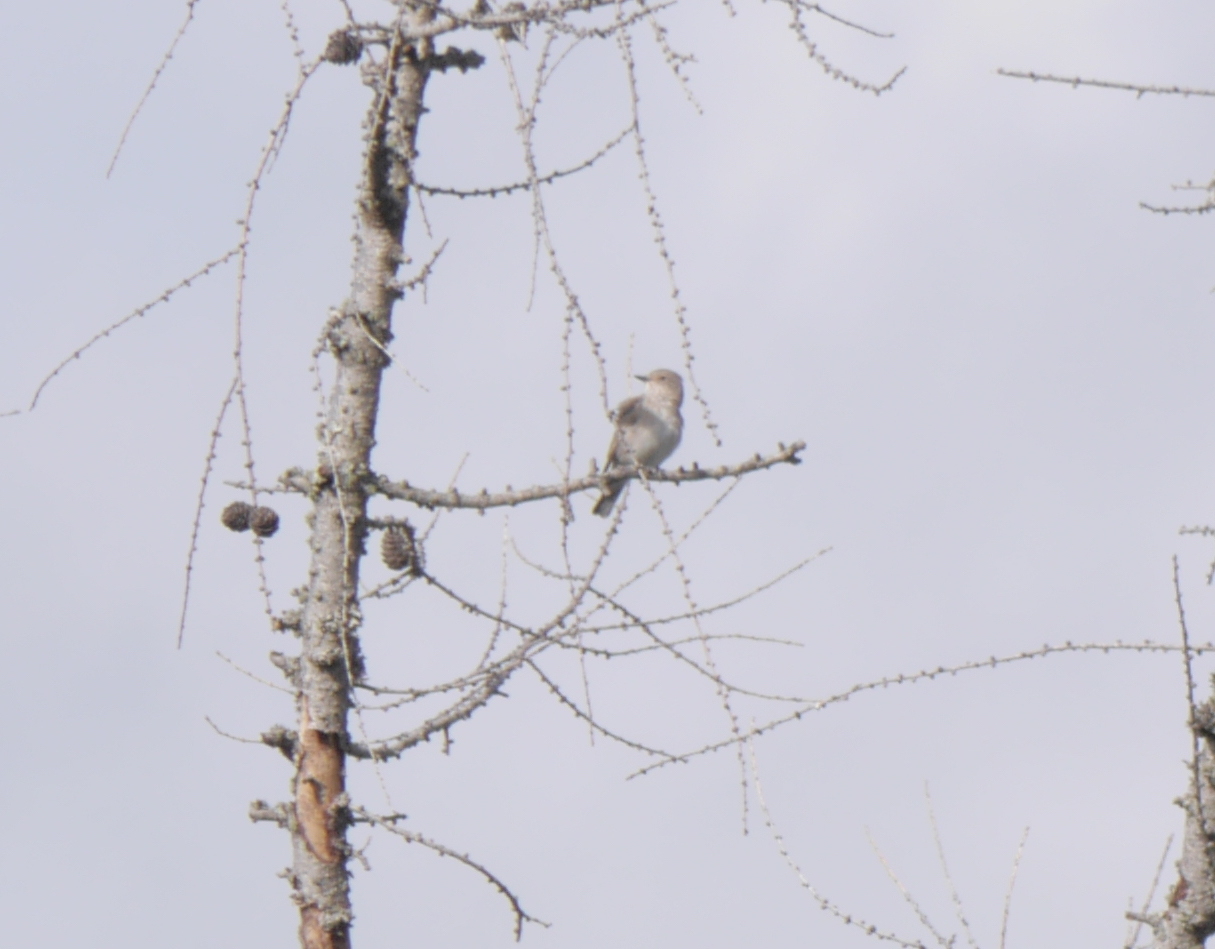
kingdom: Animalia
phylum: Chordata
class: Aves
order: Passeriformes
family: Muscicapidae
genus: Muscicapa
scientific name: Muscicapa striata
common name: Spotted flycatcher
